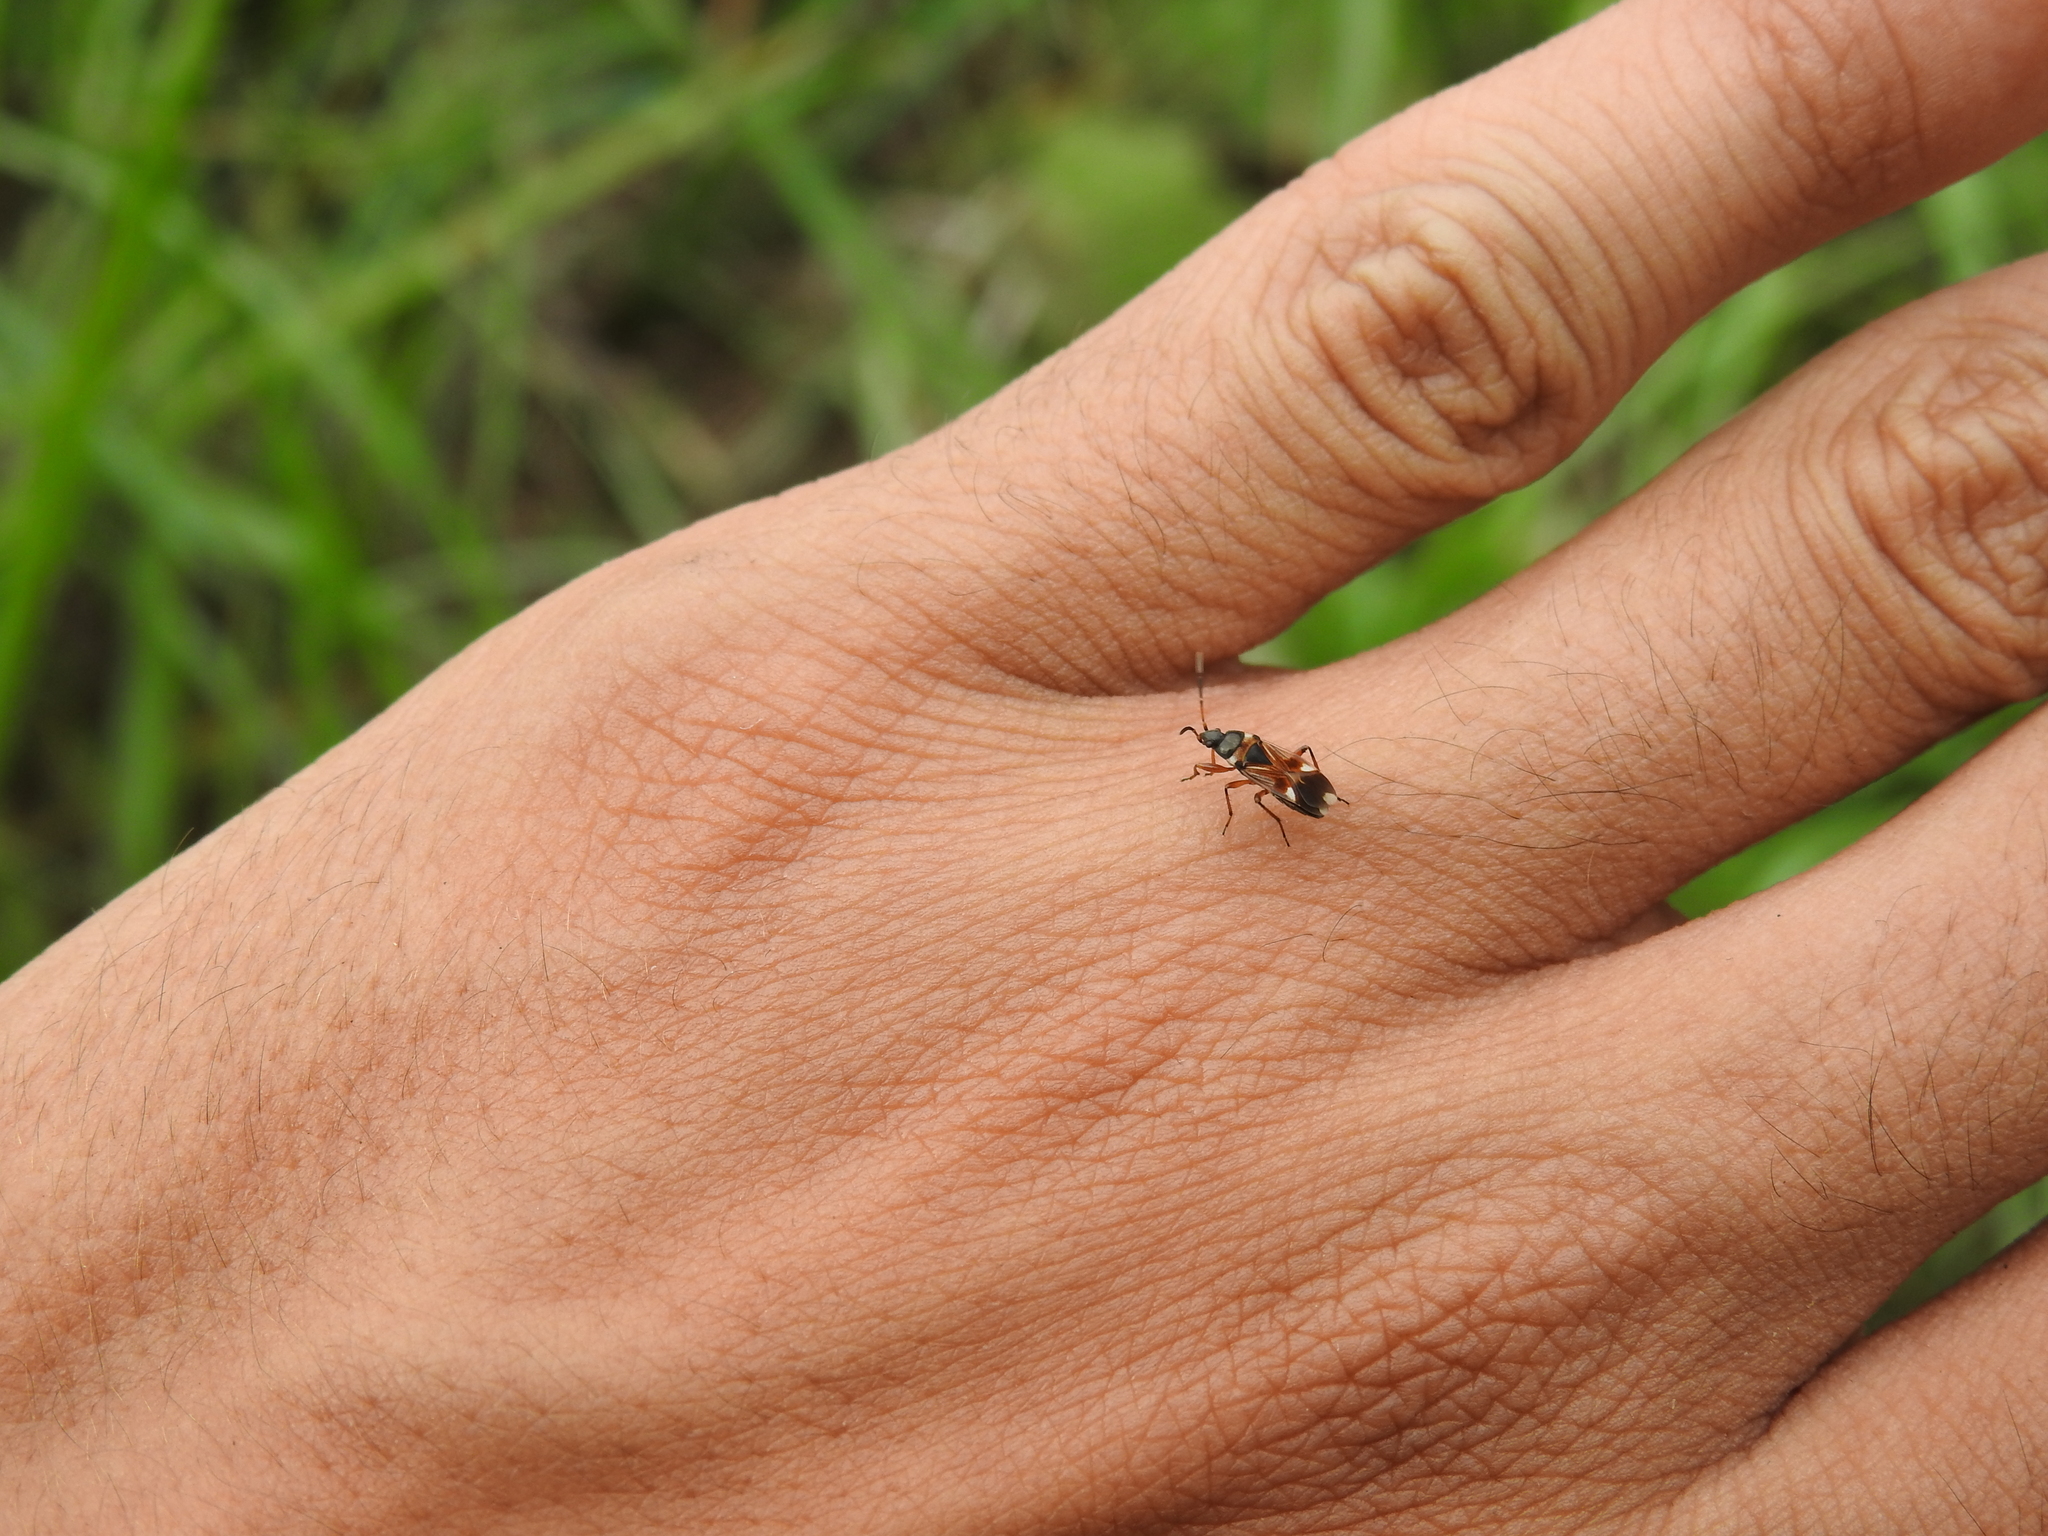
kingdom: Animalia
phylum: Arthropoda
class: Insecta
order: Hemiptera
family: Rhyparochromidae
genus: Raglius
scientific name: Raglius alboacuminatus
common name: Dirt-colored seed bug
